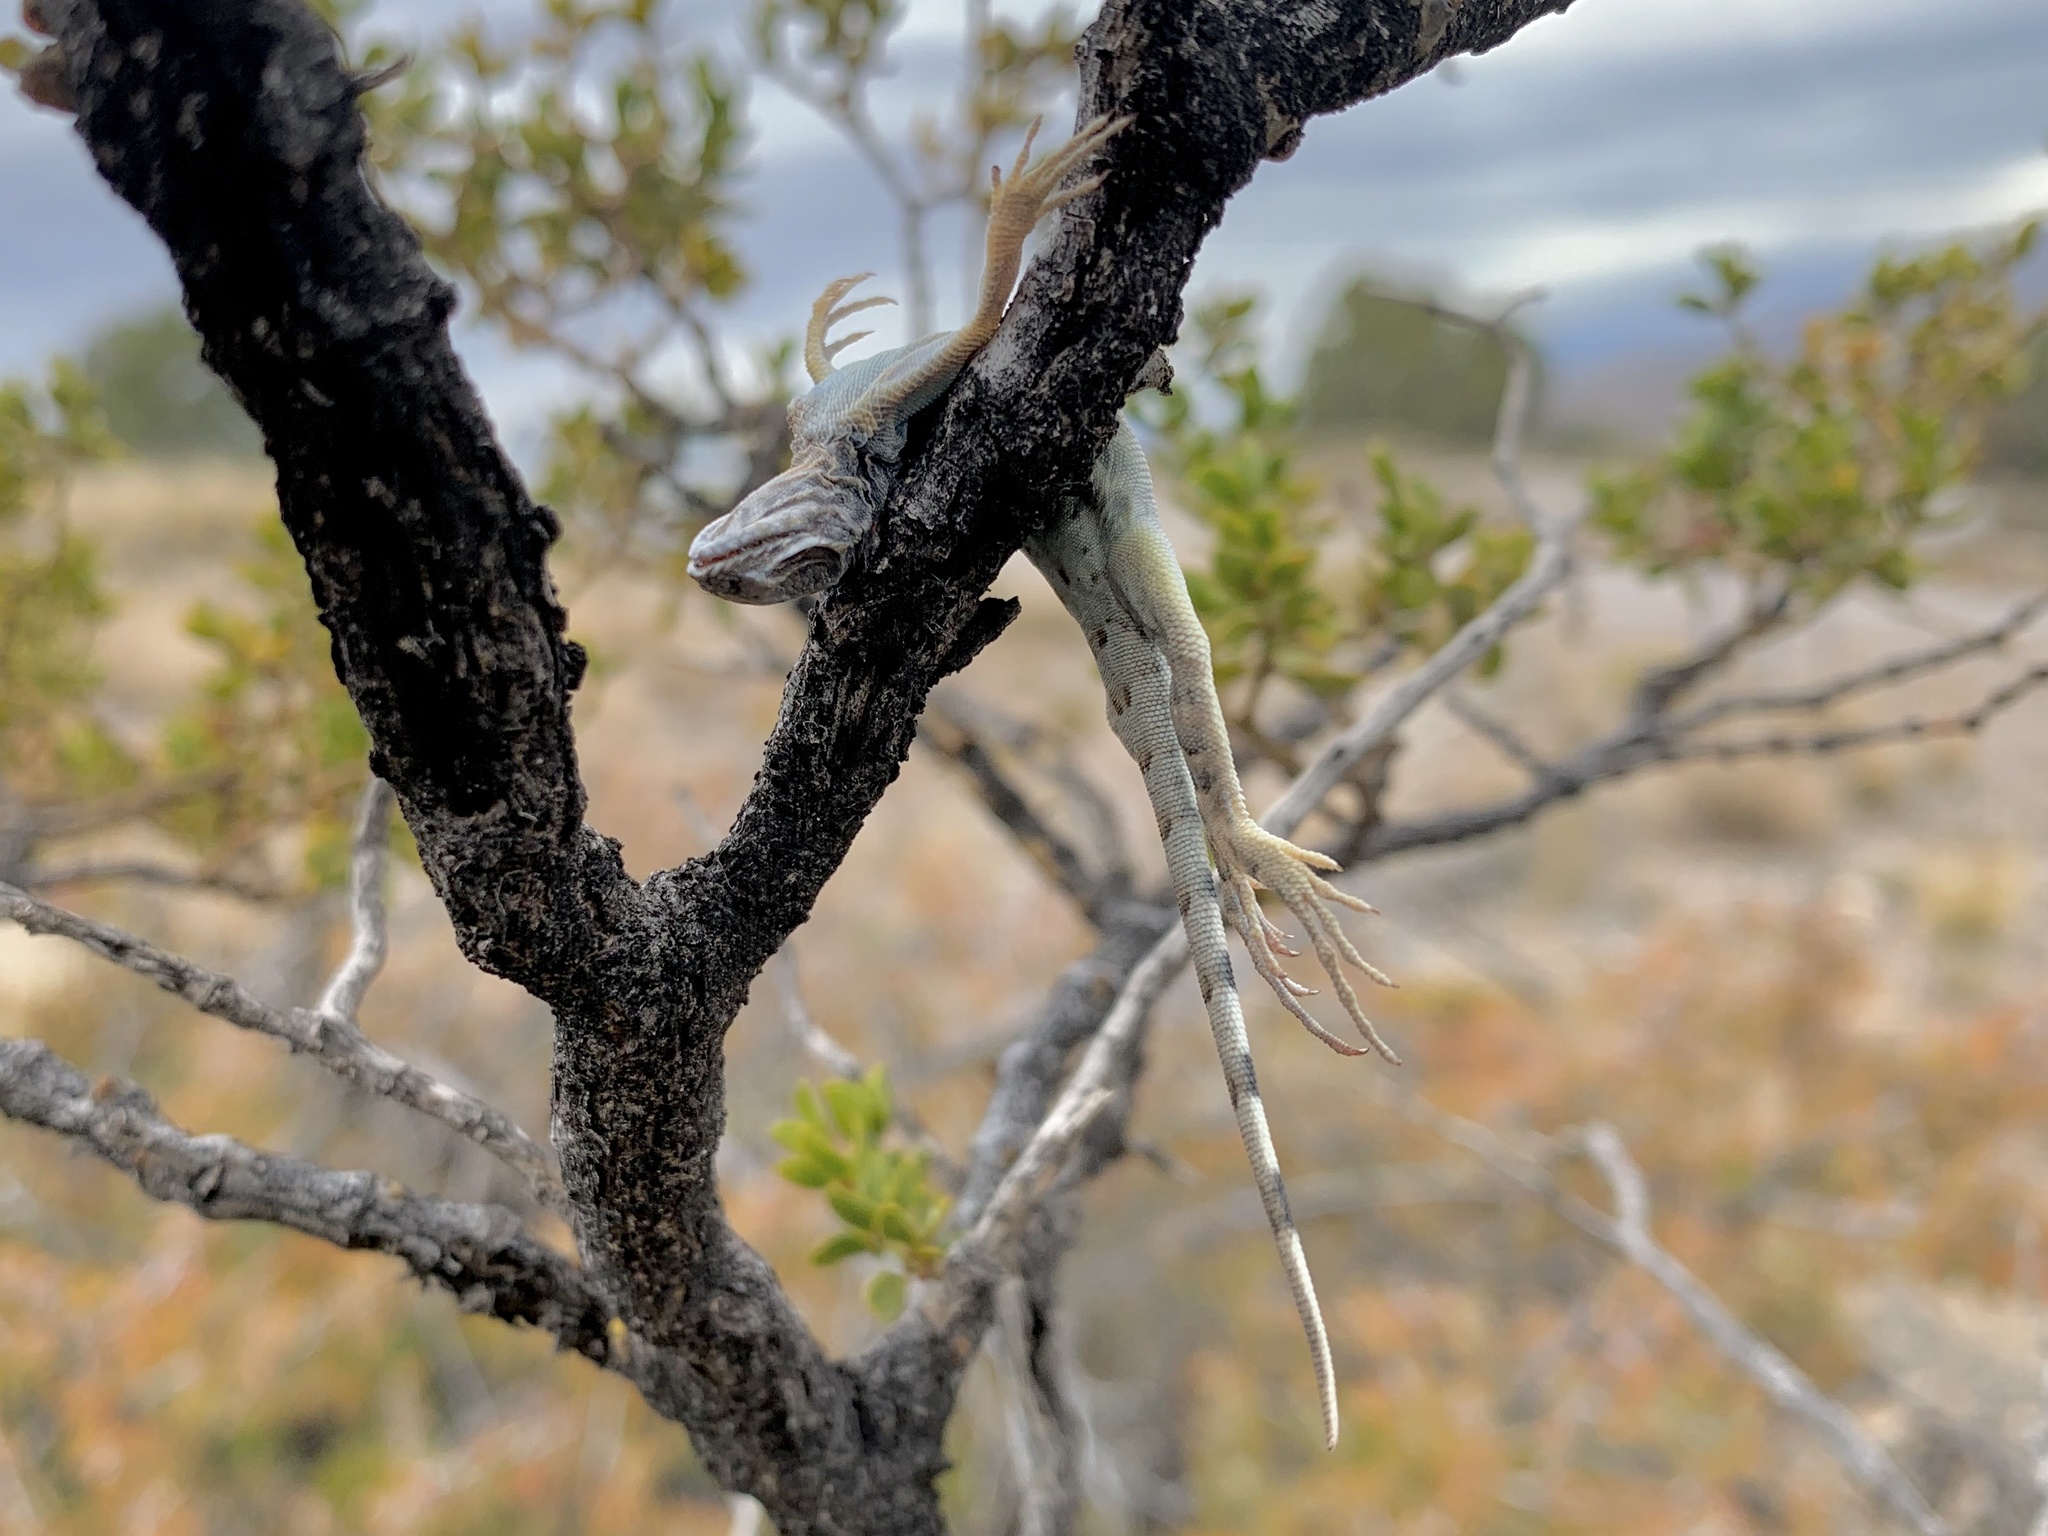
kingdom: Animalia
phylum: Chordata
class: Squamata
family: Phrynosomatidae
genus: Cophosaurus
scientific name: Cophosaurus texanus
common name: Greater earless lizard
